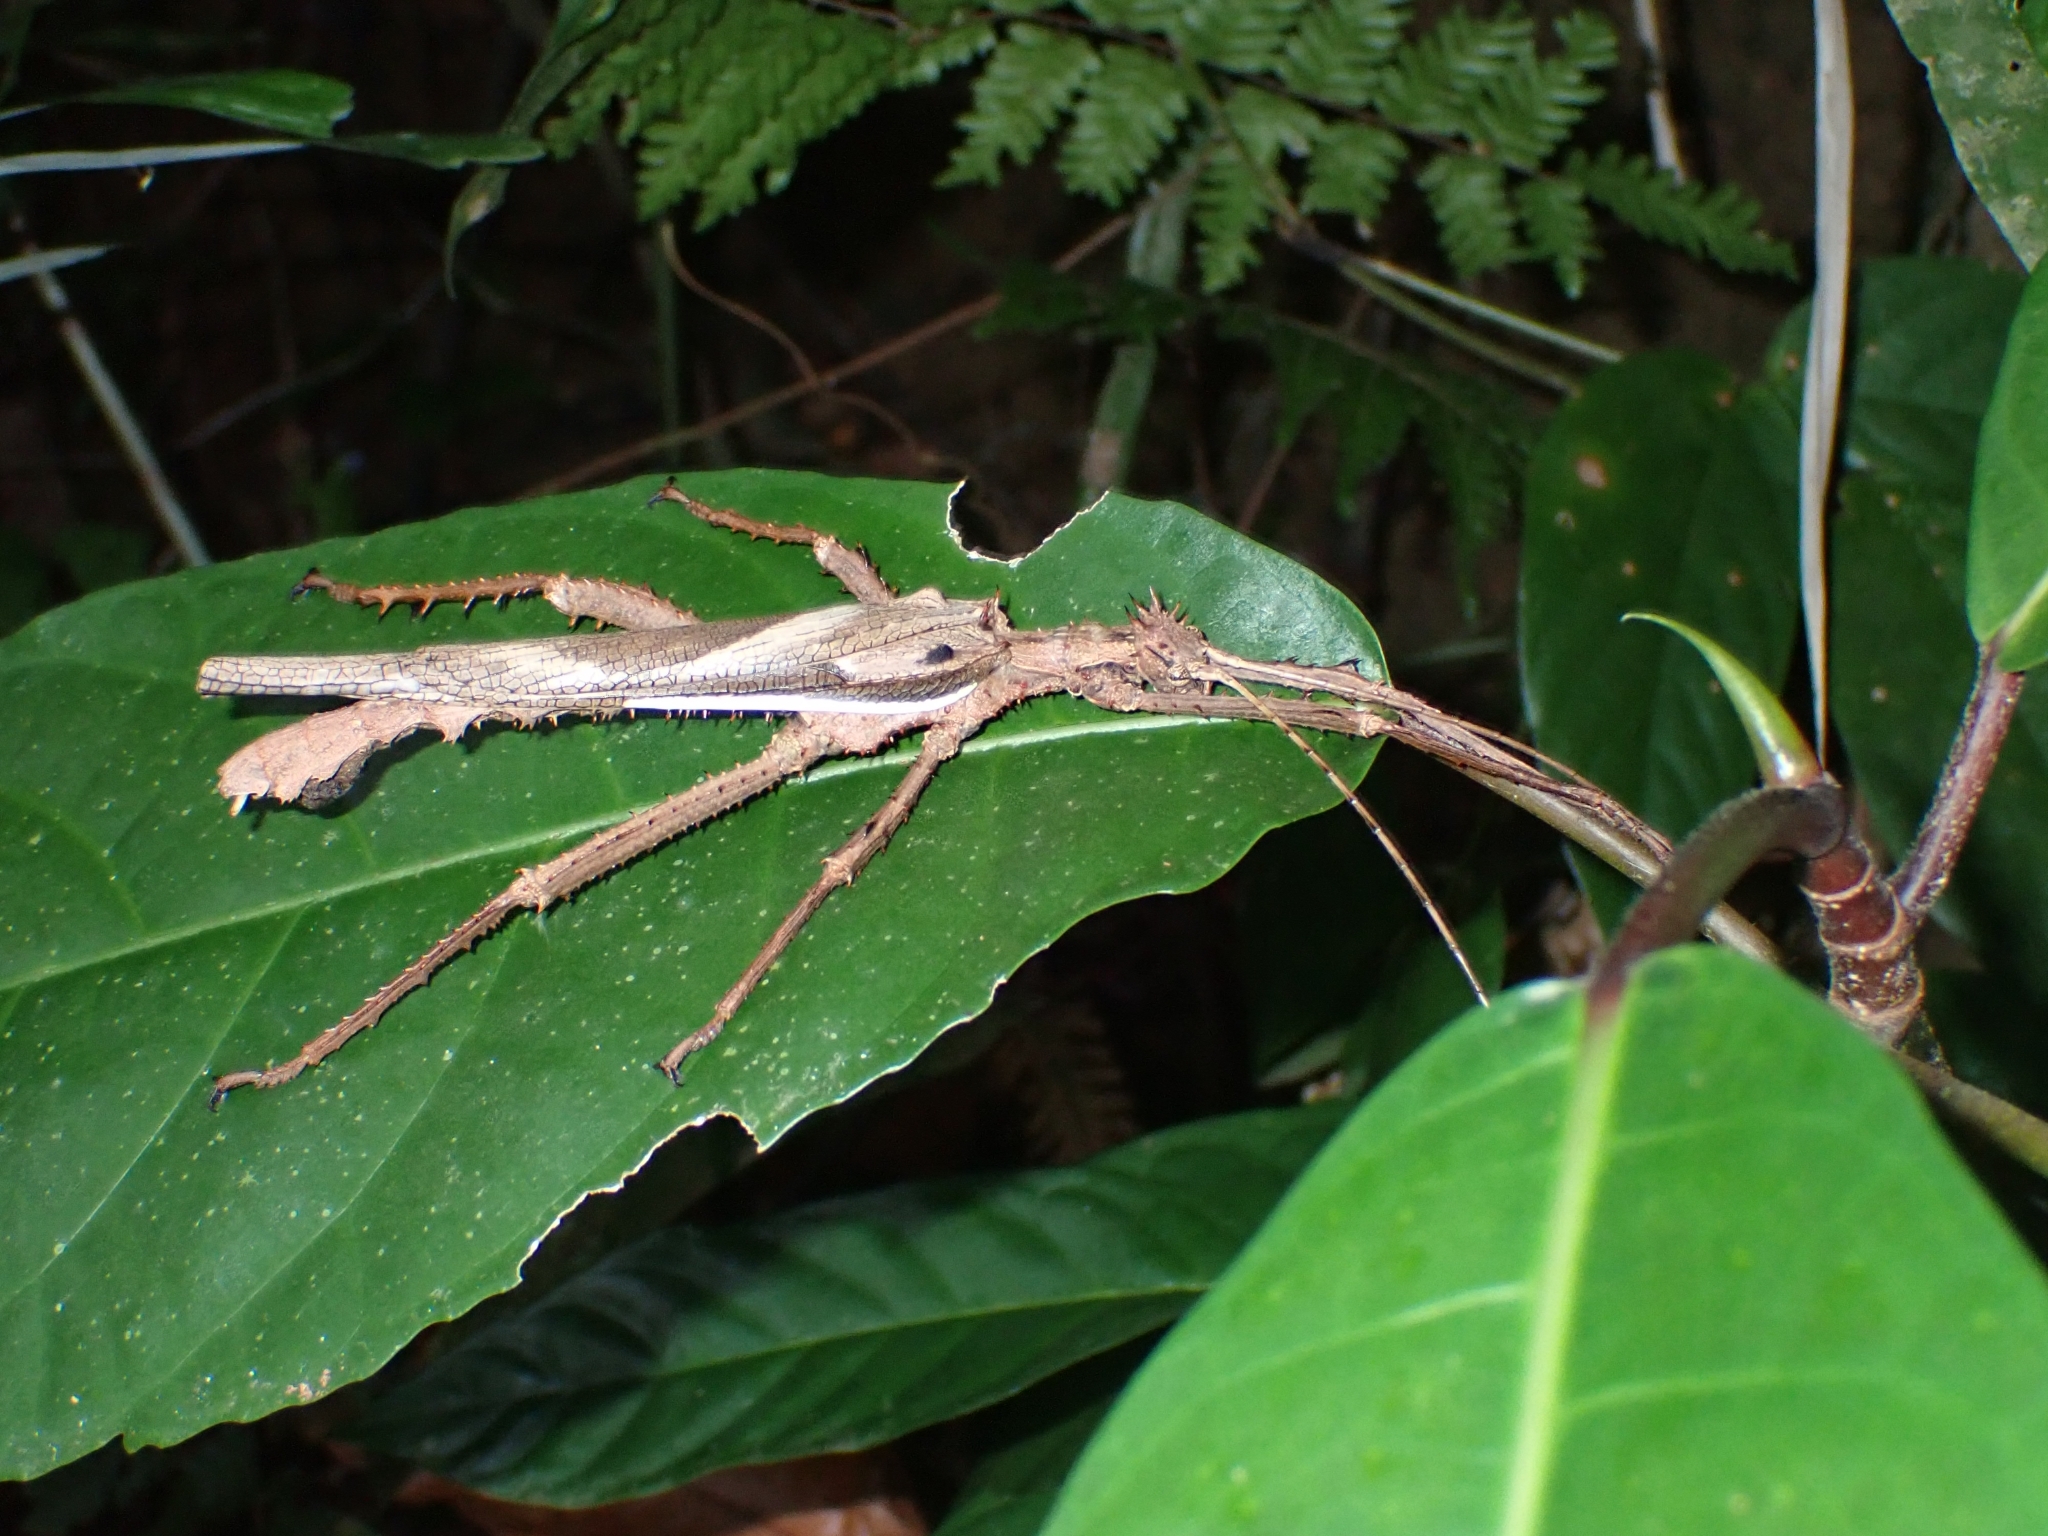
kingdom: Animalia
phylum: Arthropoda
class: Insecta
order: Phasmida
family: Heteropterygidae
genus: Heteropteryx
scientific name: Heteropteryx dilatata
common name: Jungle nymph
